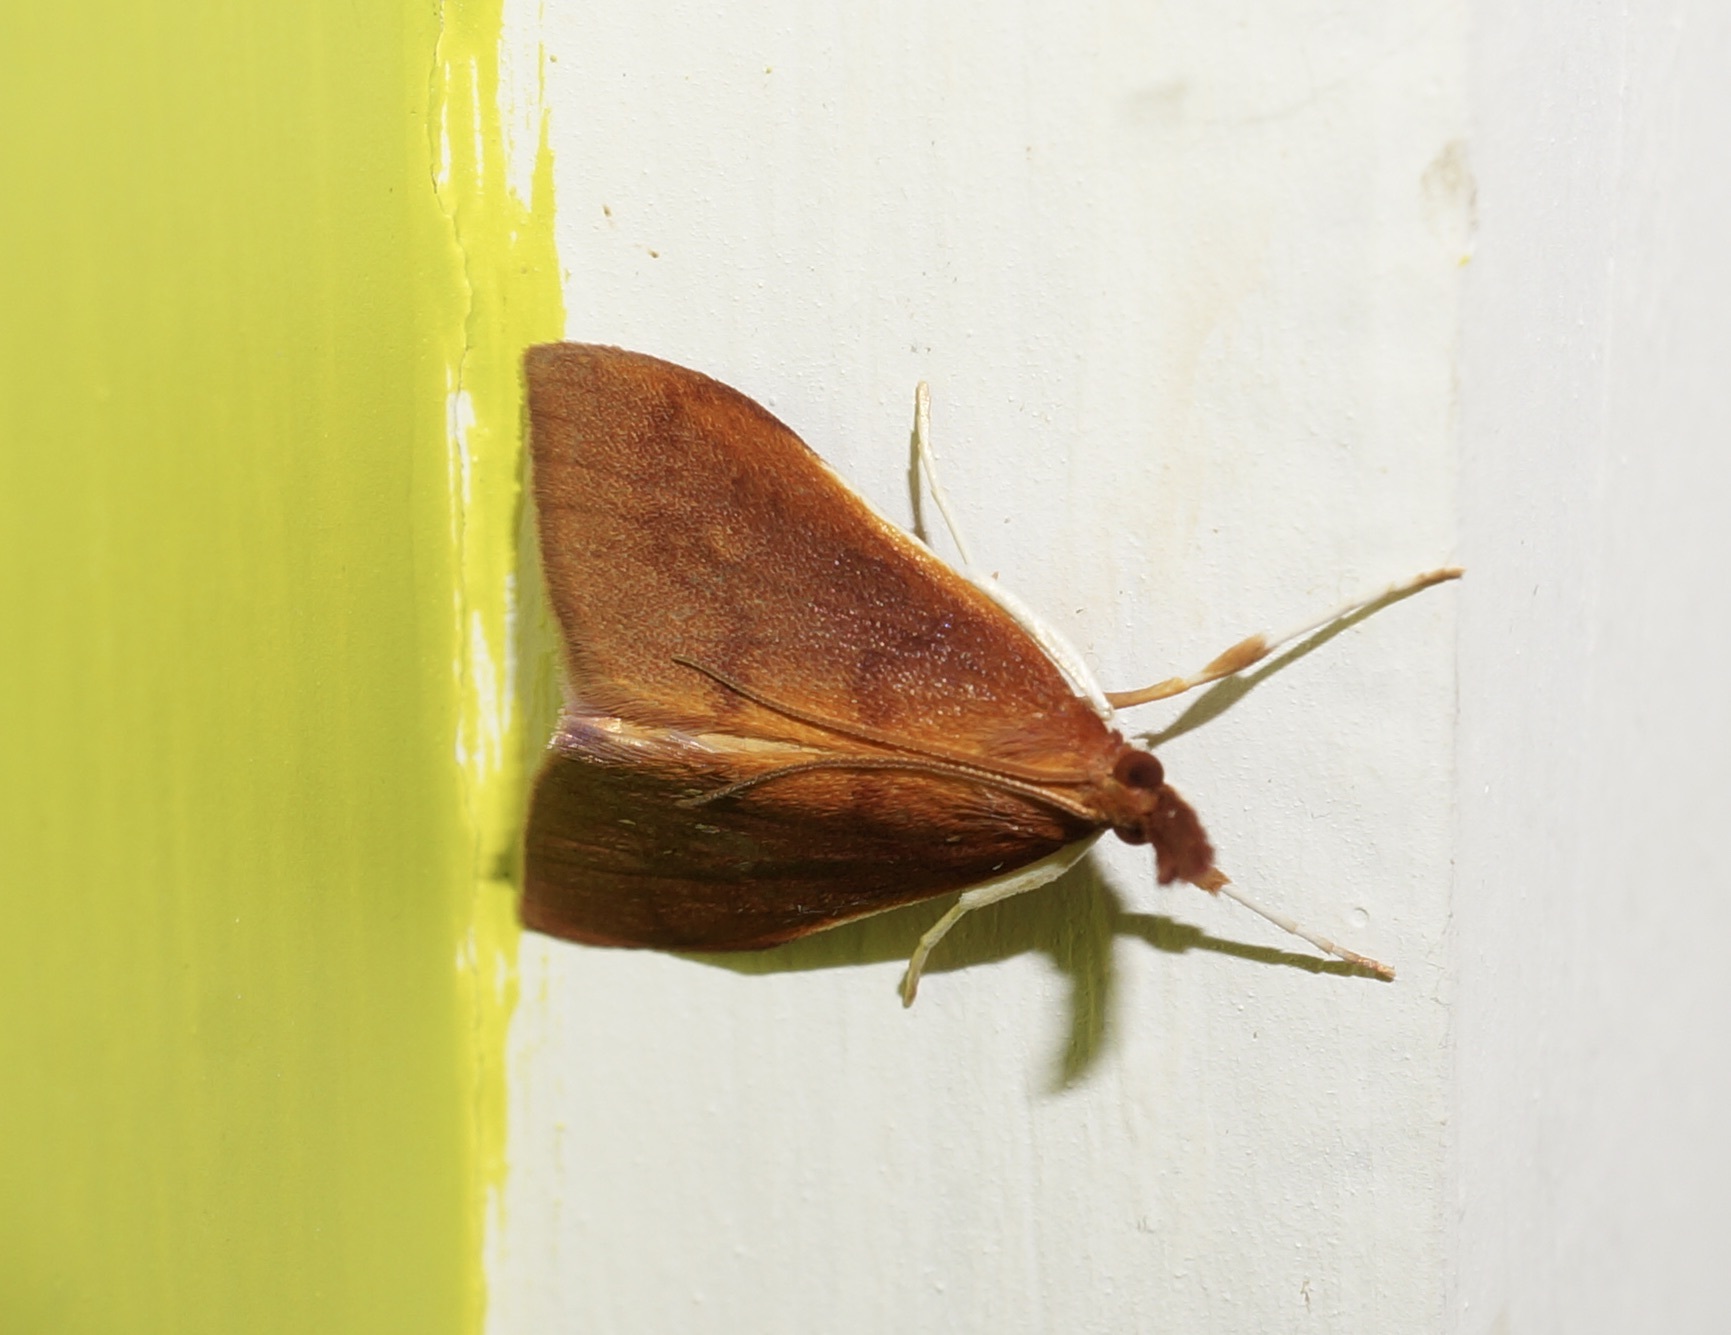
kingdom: Animalia
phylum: Arthropoda
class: Insecta
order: Lepidoptera
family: Crambidae
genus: Udea
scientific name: Udea daiclesalis
